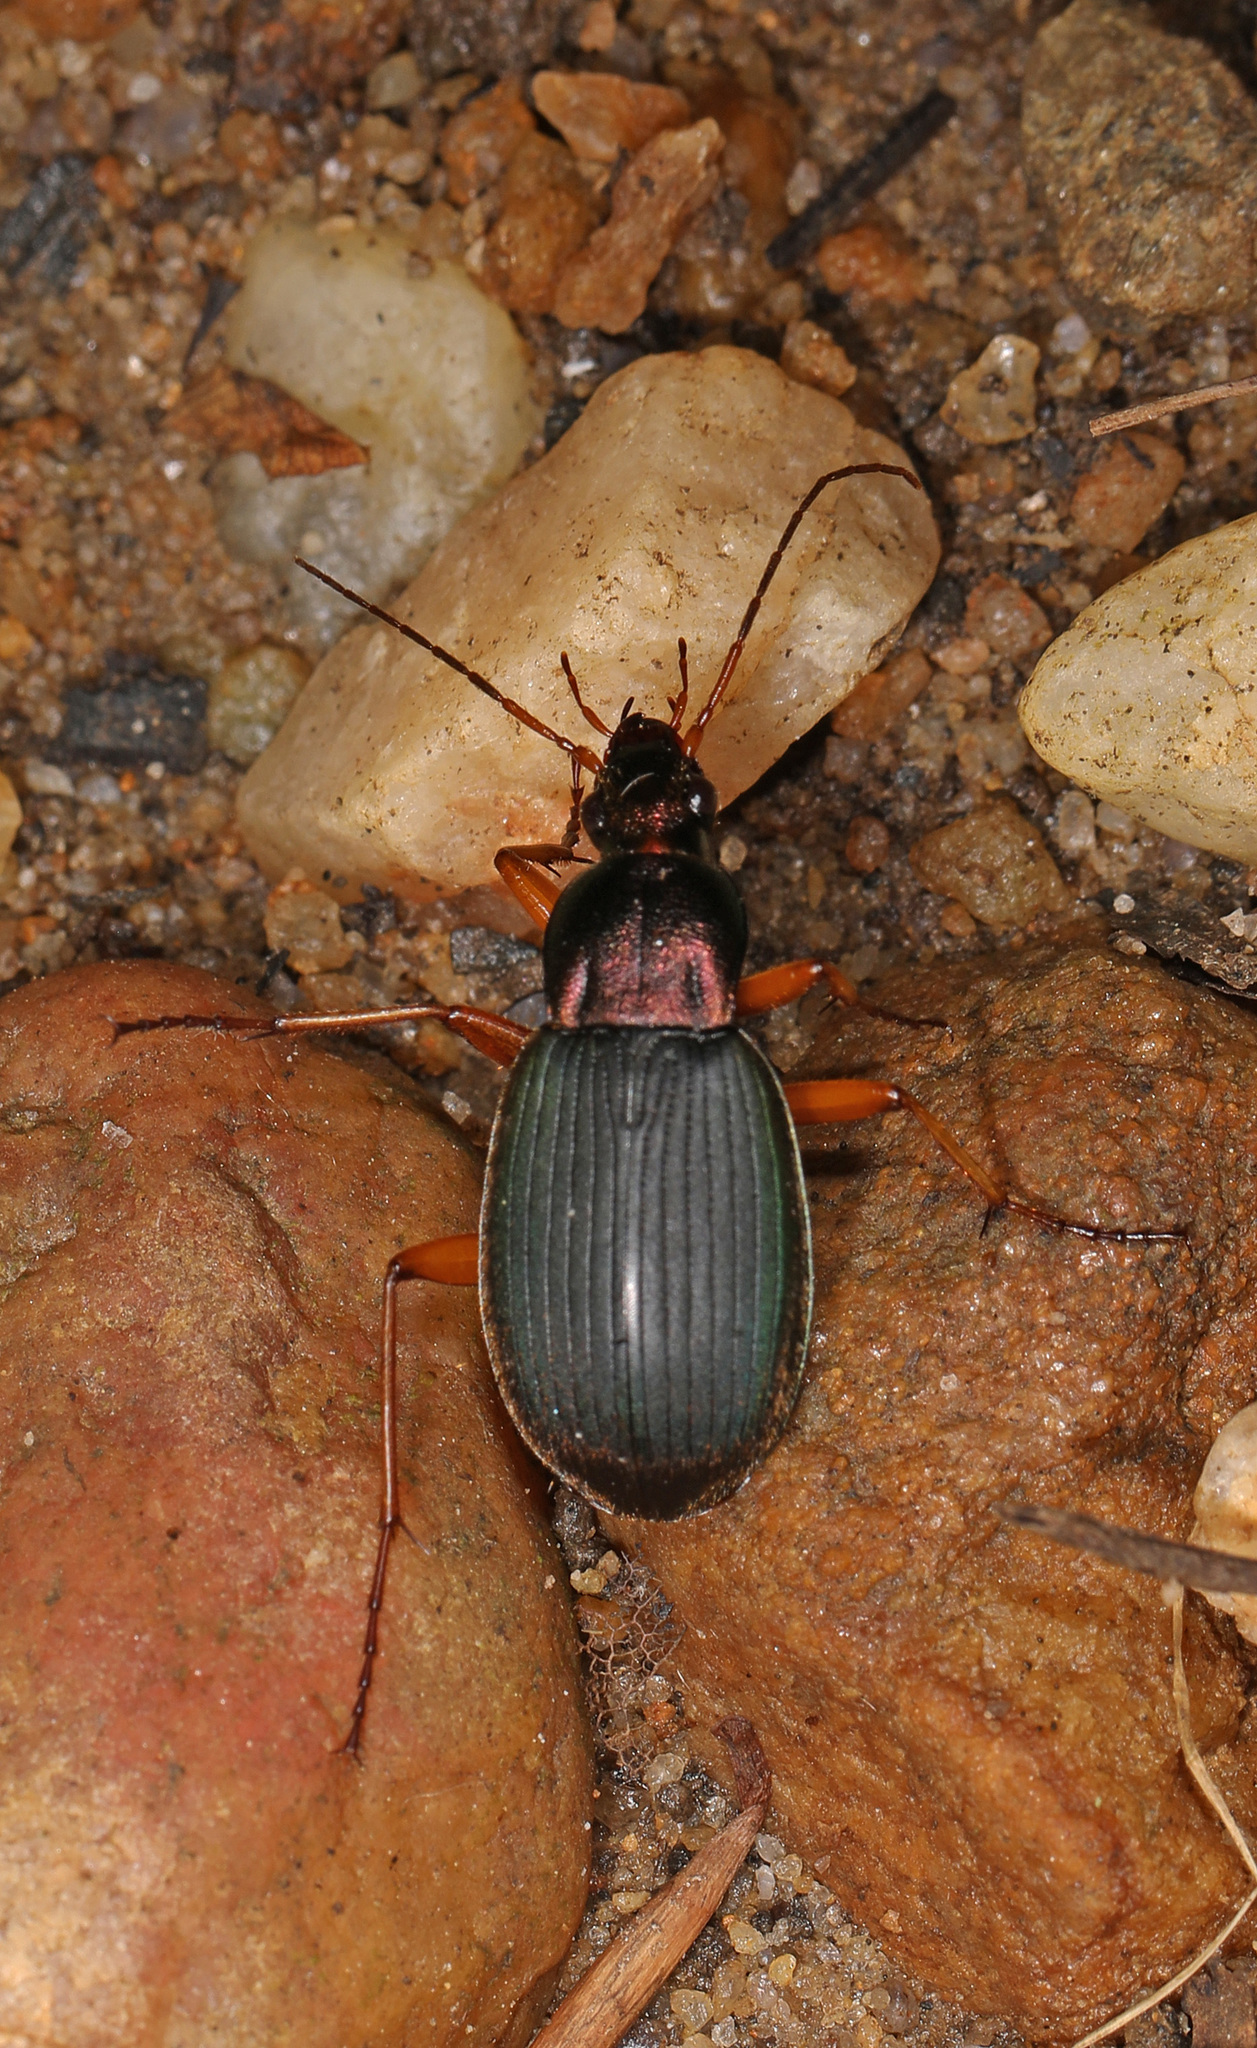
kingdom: Animalia
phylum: Arthropoda
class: Insecta
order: Coleoptera
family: Carabidae
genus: Chlaenius
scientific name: Chlaenius aestivus
